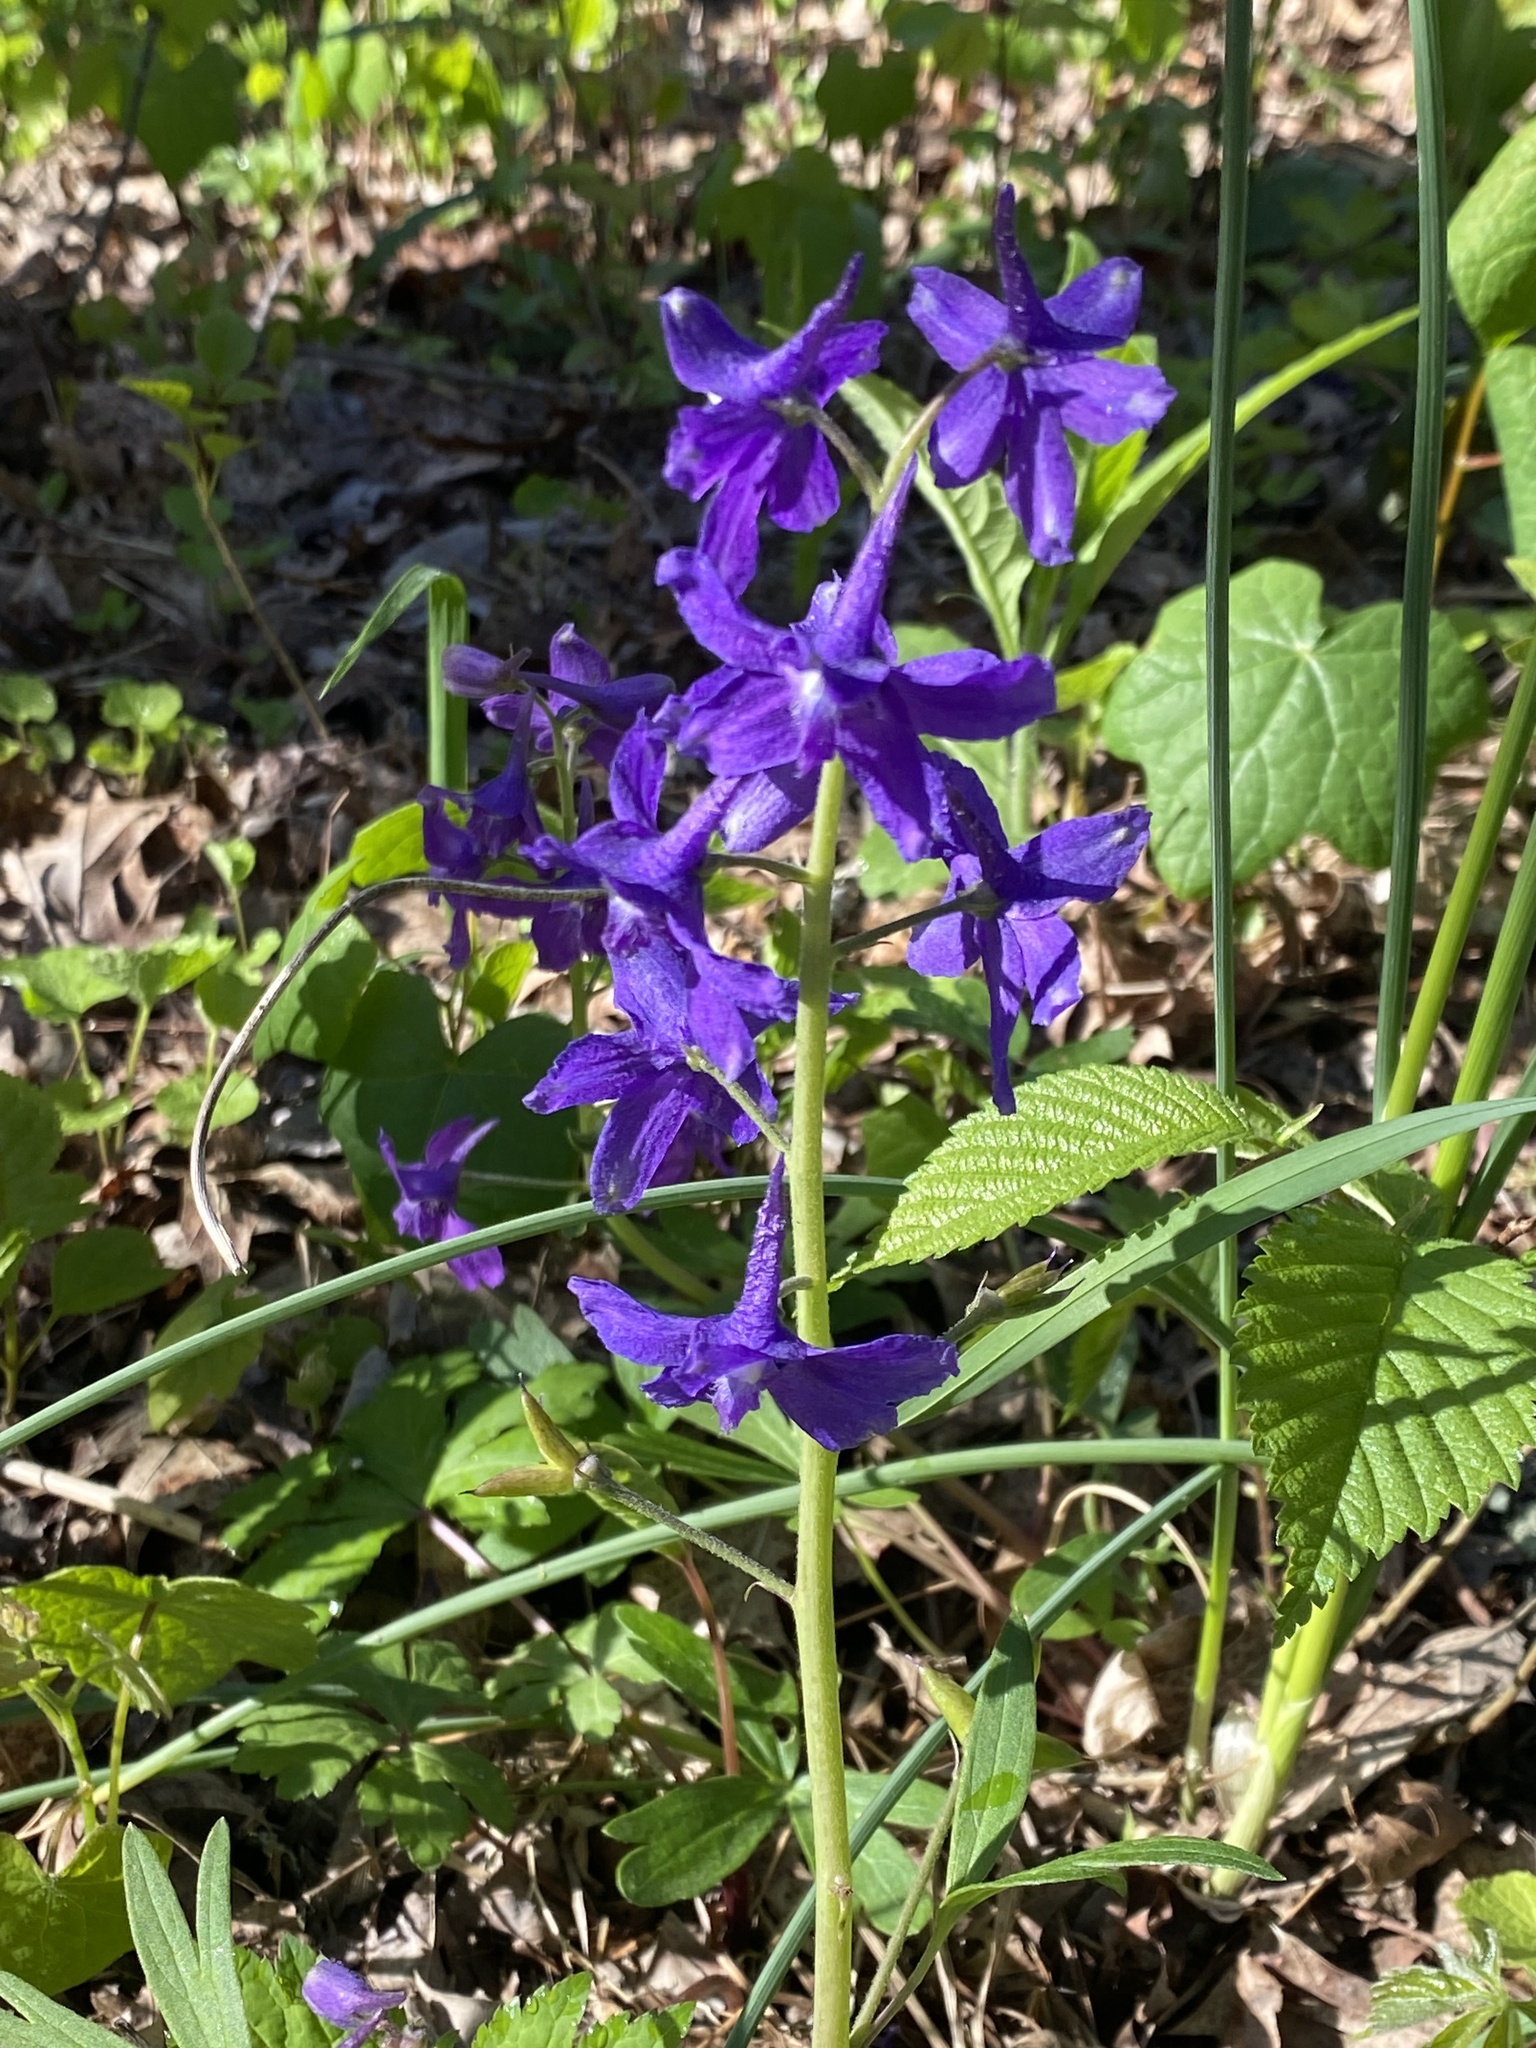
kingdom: Plantae
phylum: Tracheophyta
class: Magnoliopsida
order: Ranunculales
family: Ranunculaceae
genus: Delphinium
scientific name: Delphinium tricorne
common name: Dwarf larkspur
